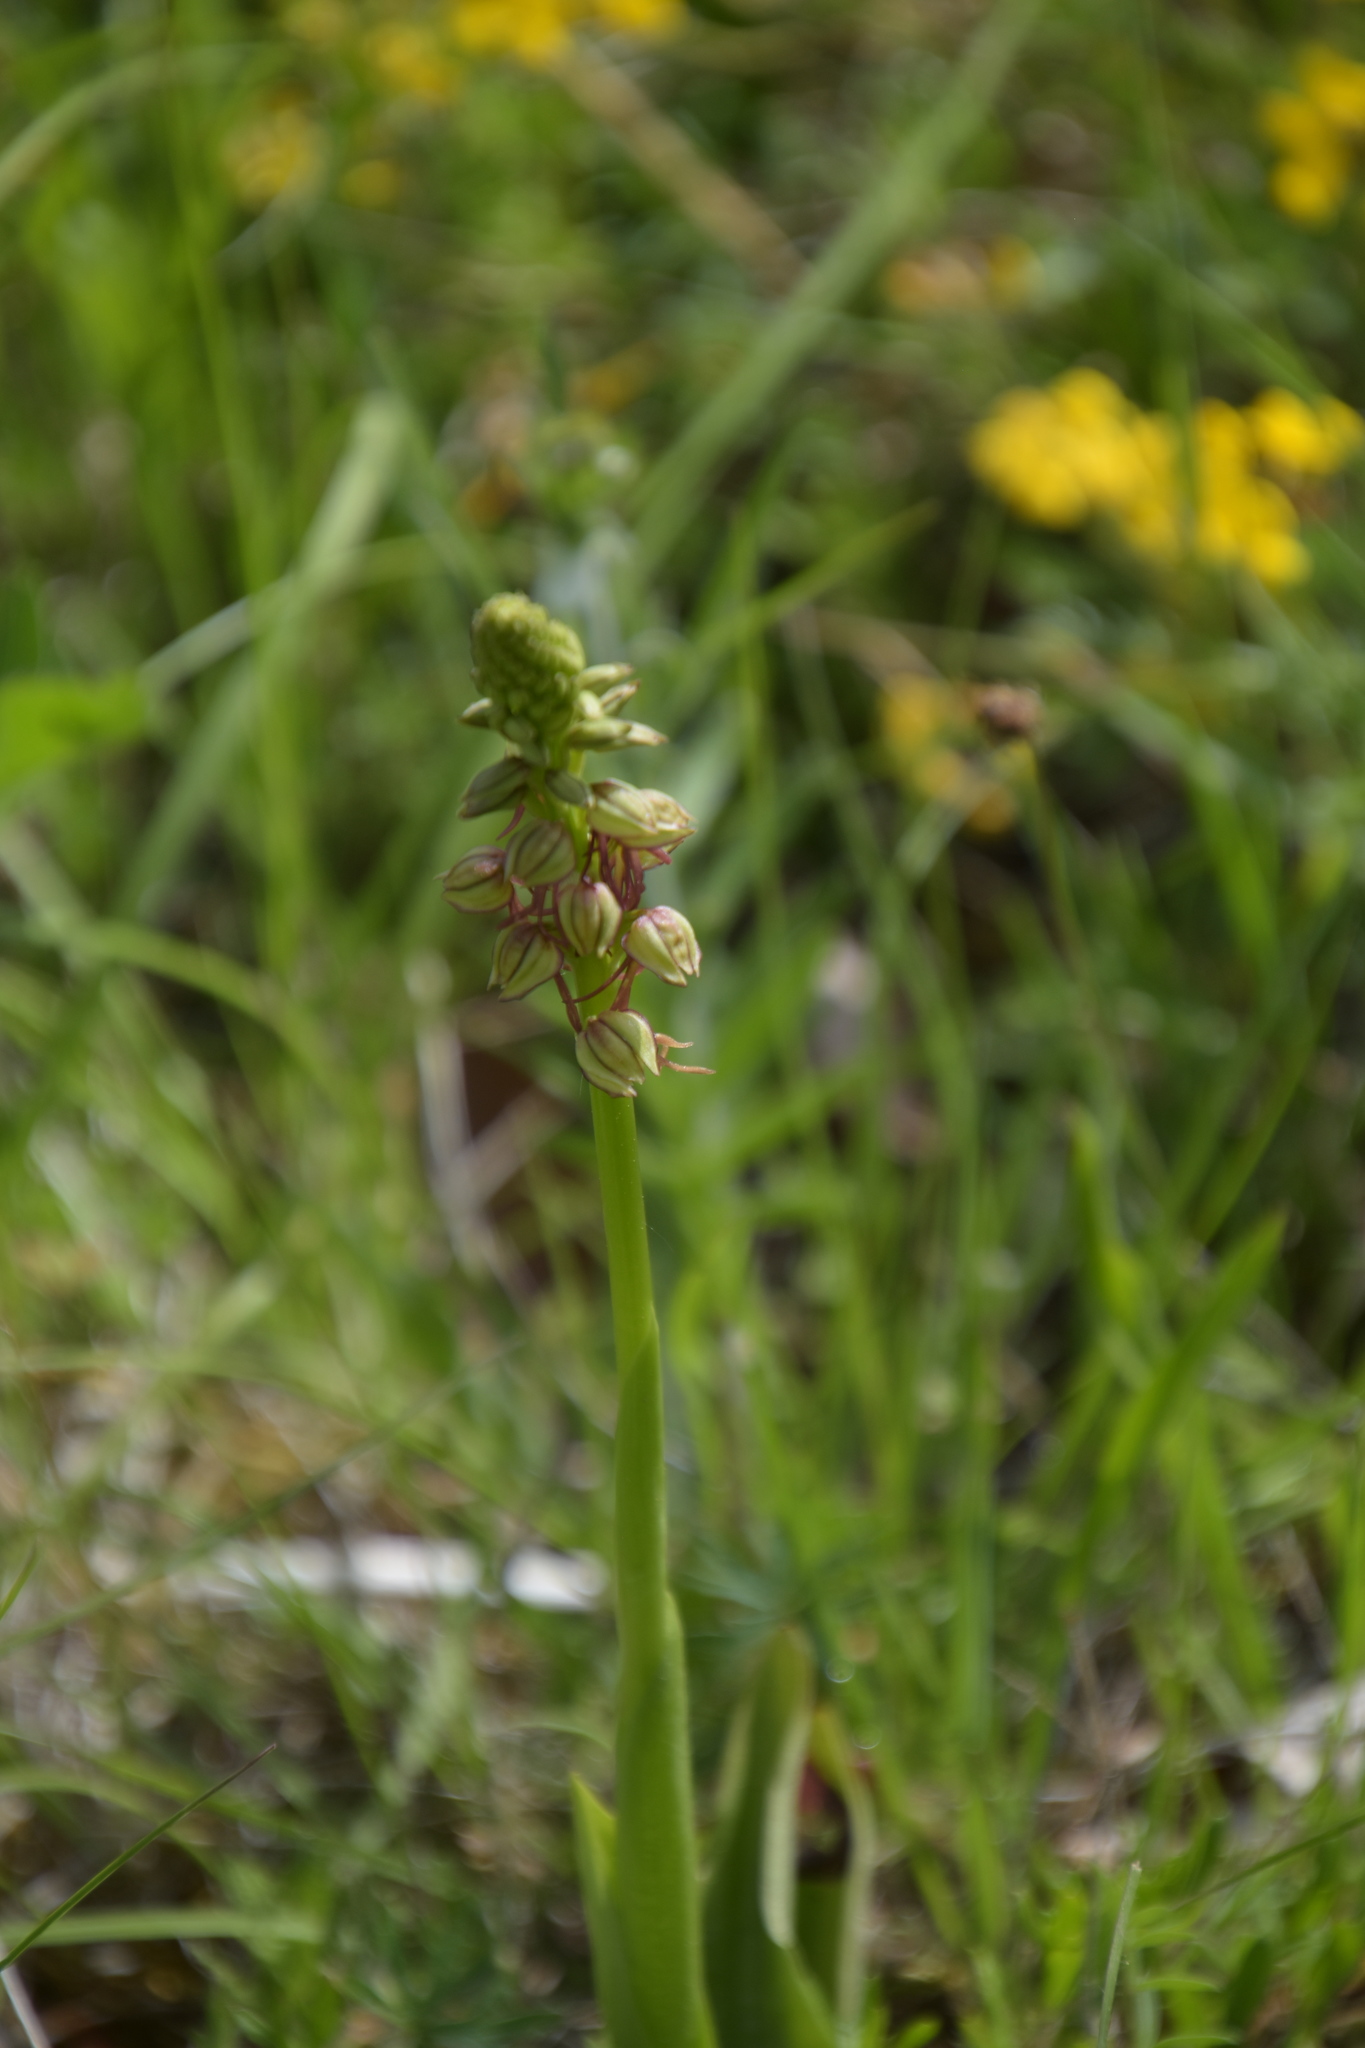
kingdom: Plantae
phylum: Tracheophyta
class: Liliopsida
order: Asparagales
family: Orchidaceae
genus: Orchis
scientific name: Orchis anthropophora
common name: Man orchid
